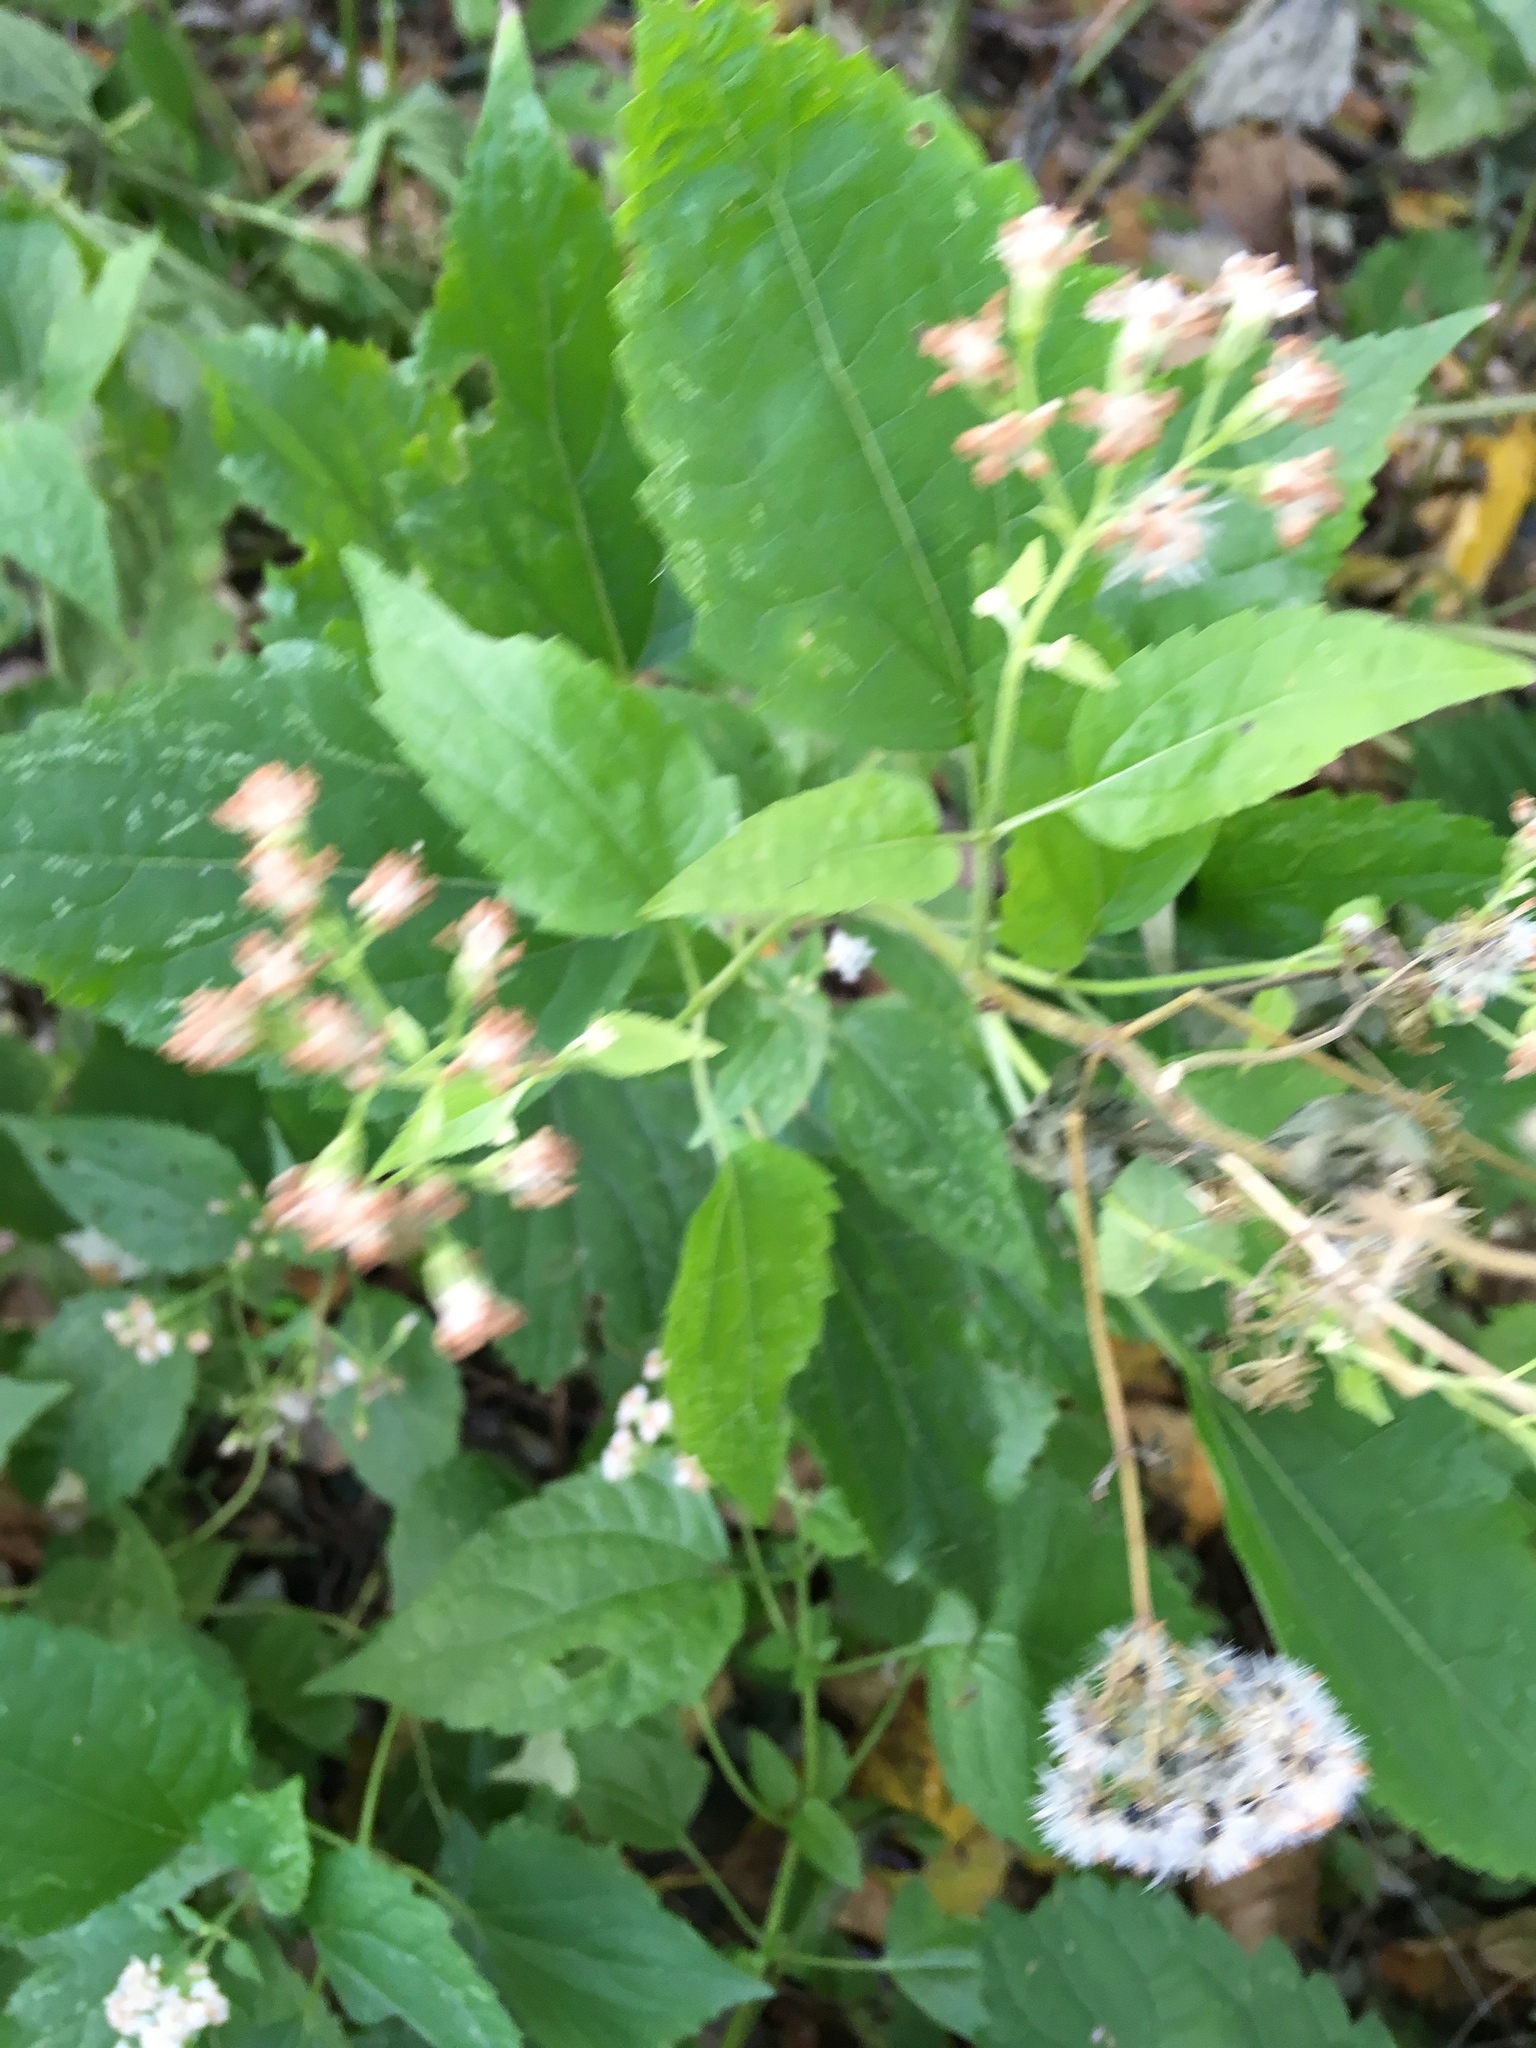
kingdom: Plantae
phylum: Tracheophyta
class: Magnoliopsida
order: Asterales
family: Asteraceae
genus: Ageratina
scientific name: Ageratina altissima
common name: White snakeroot
